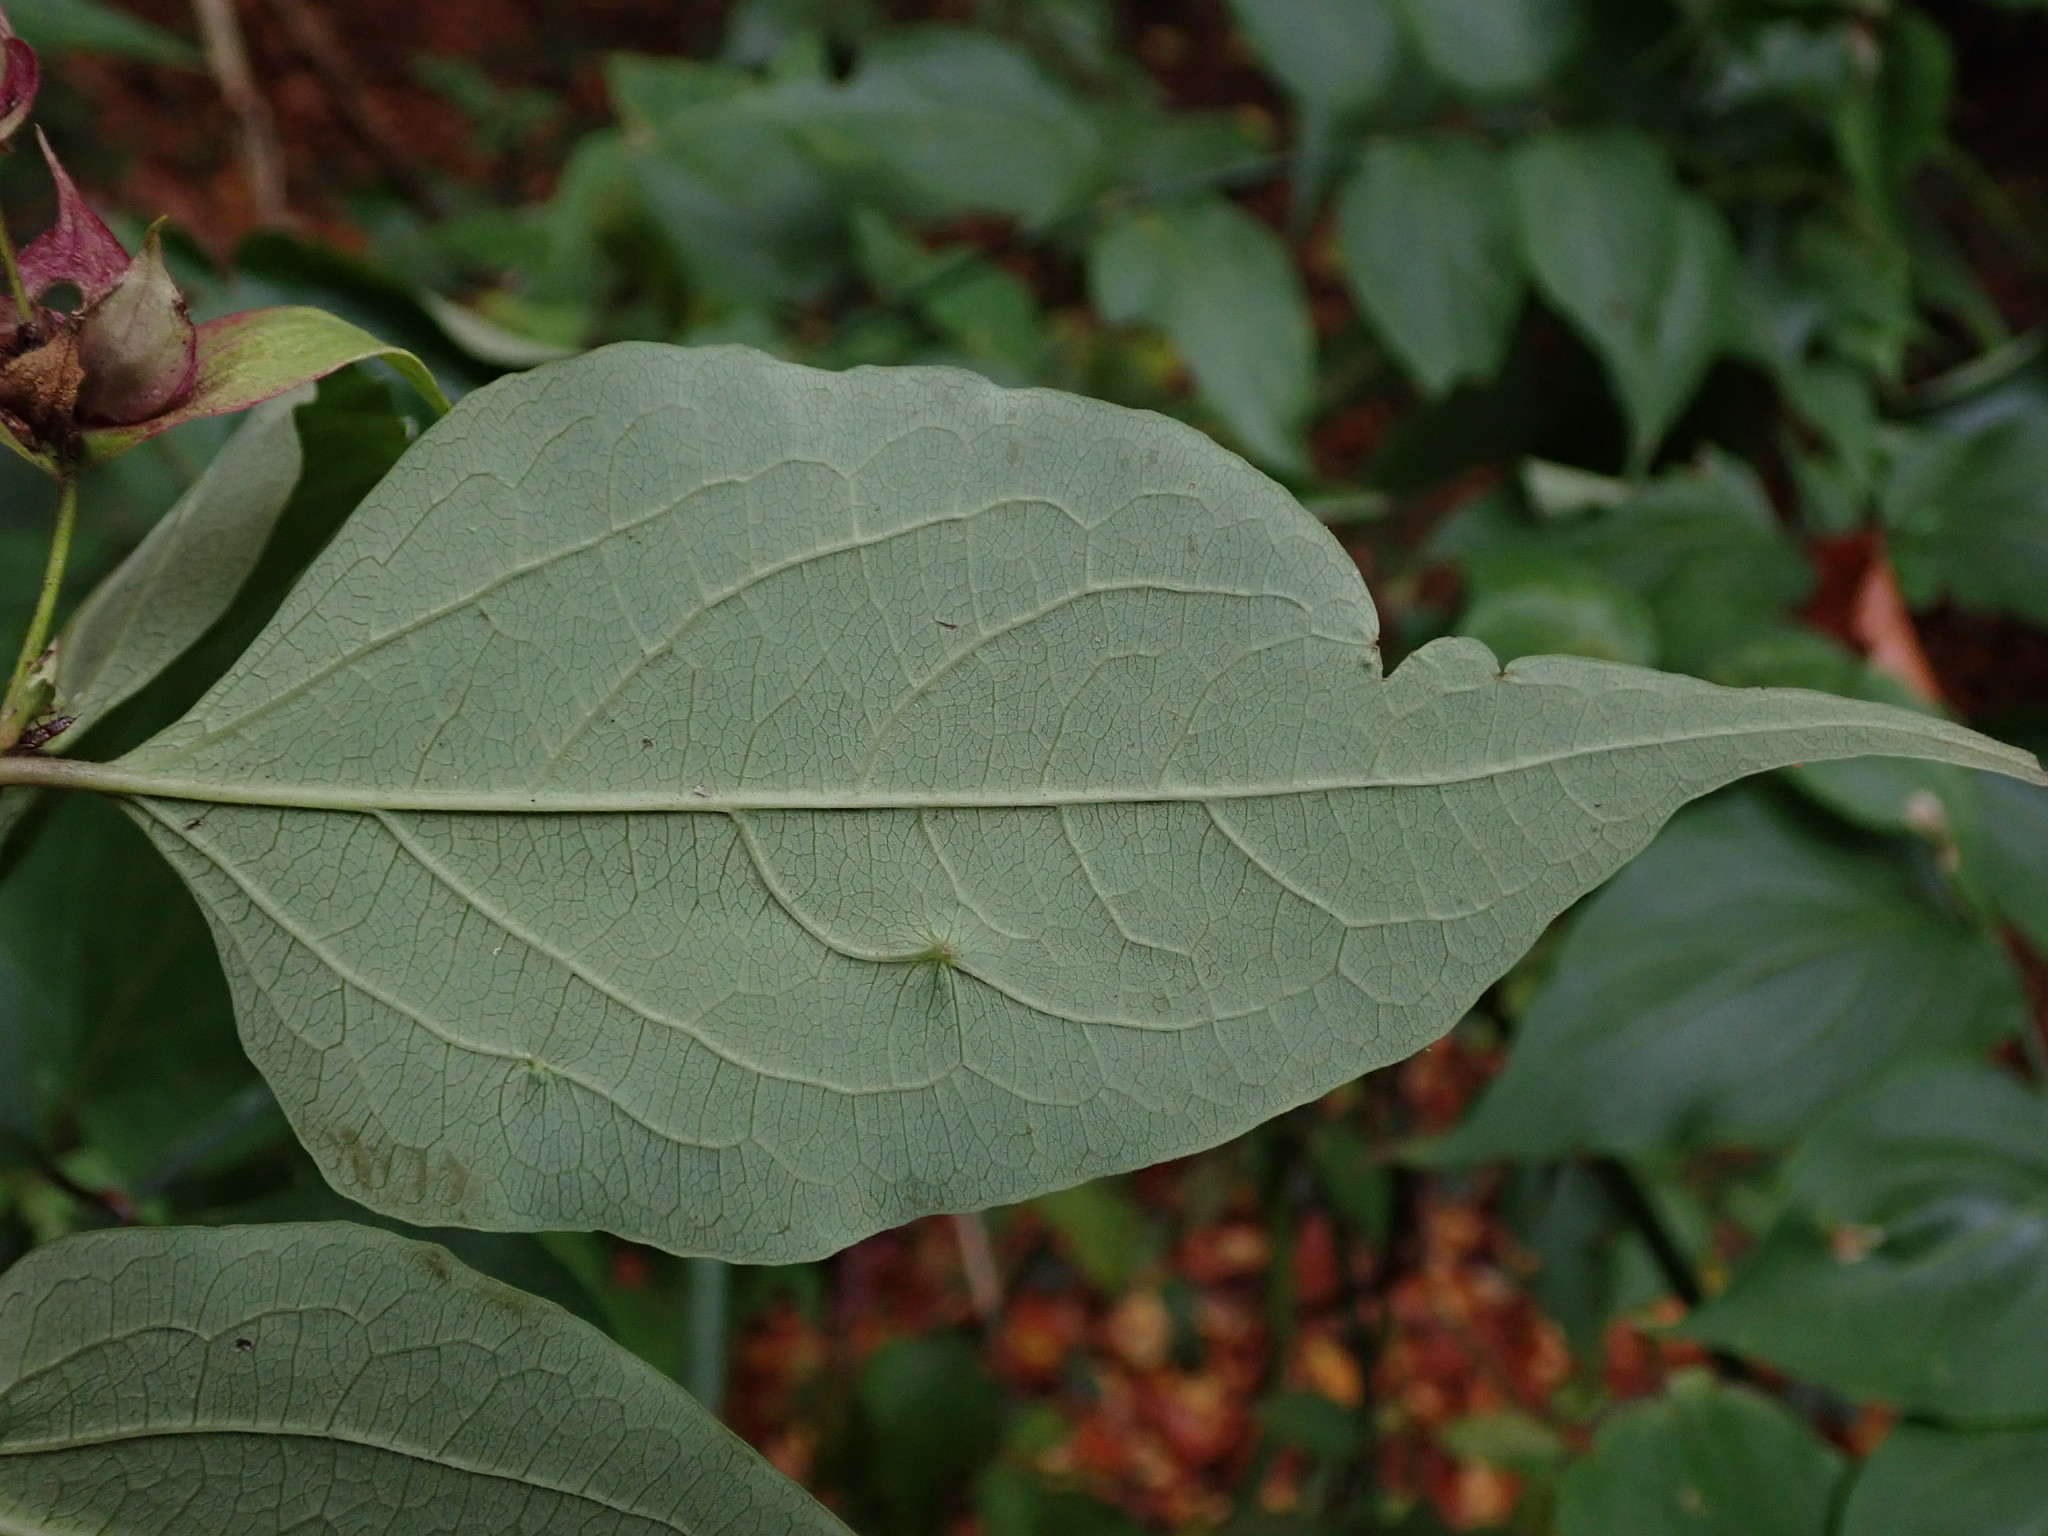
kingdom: Plantae
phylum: Tracheophyta
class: Magnoliopsida
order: Dipsacales
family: Caprifoliaceae
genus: Leycesteria
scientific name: Leycesteria formosa
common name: Himalayan honeysuckle
